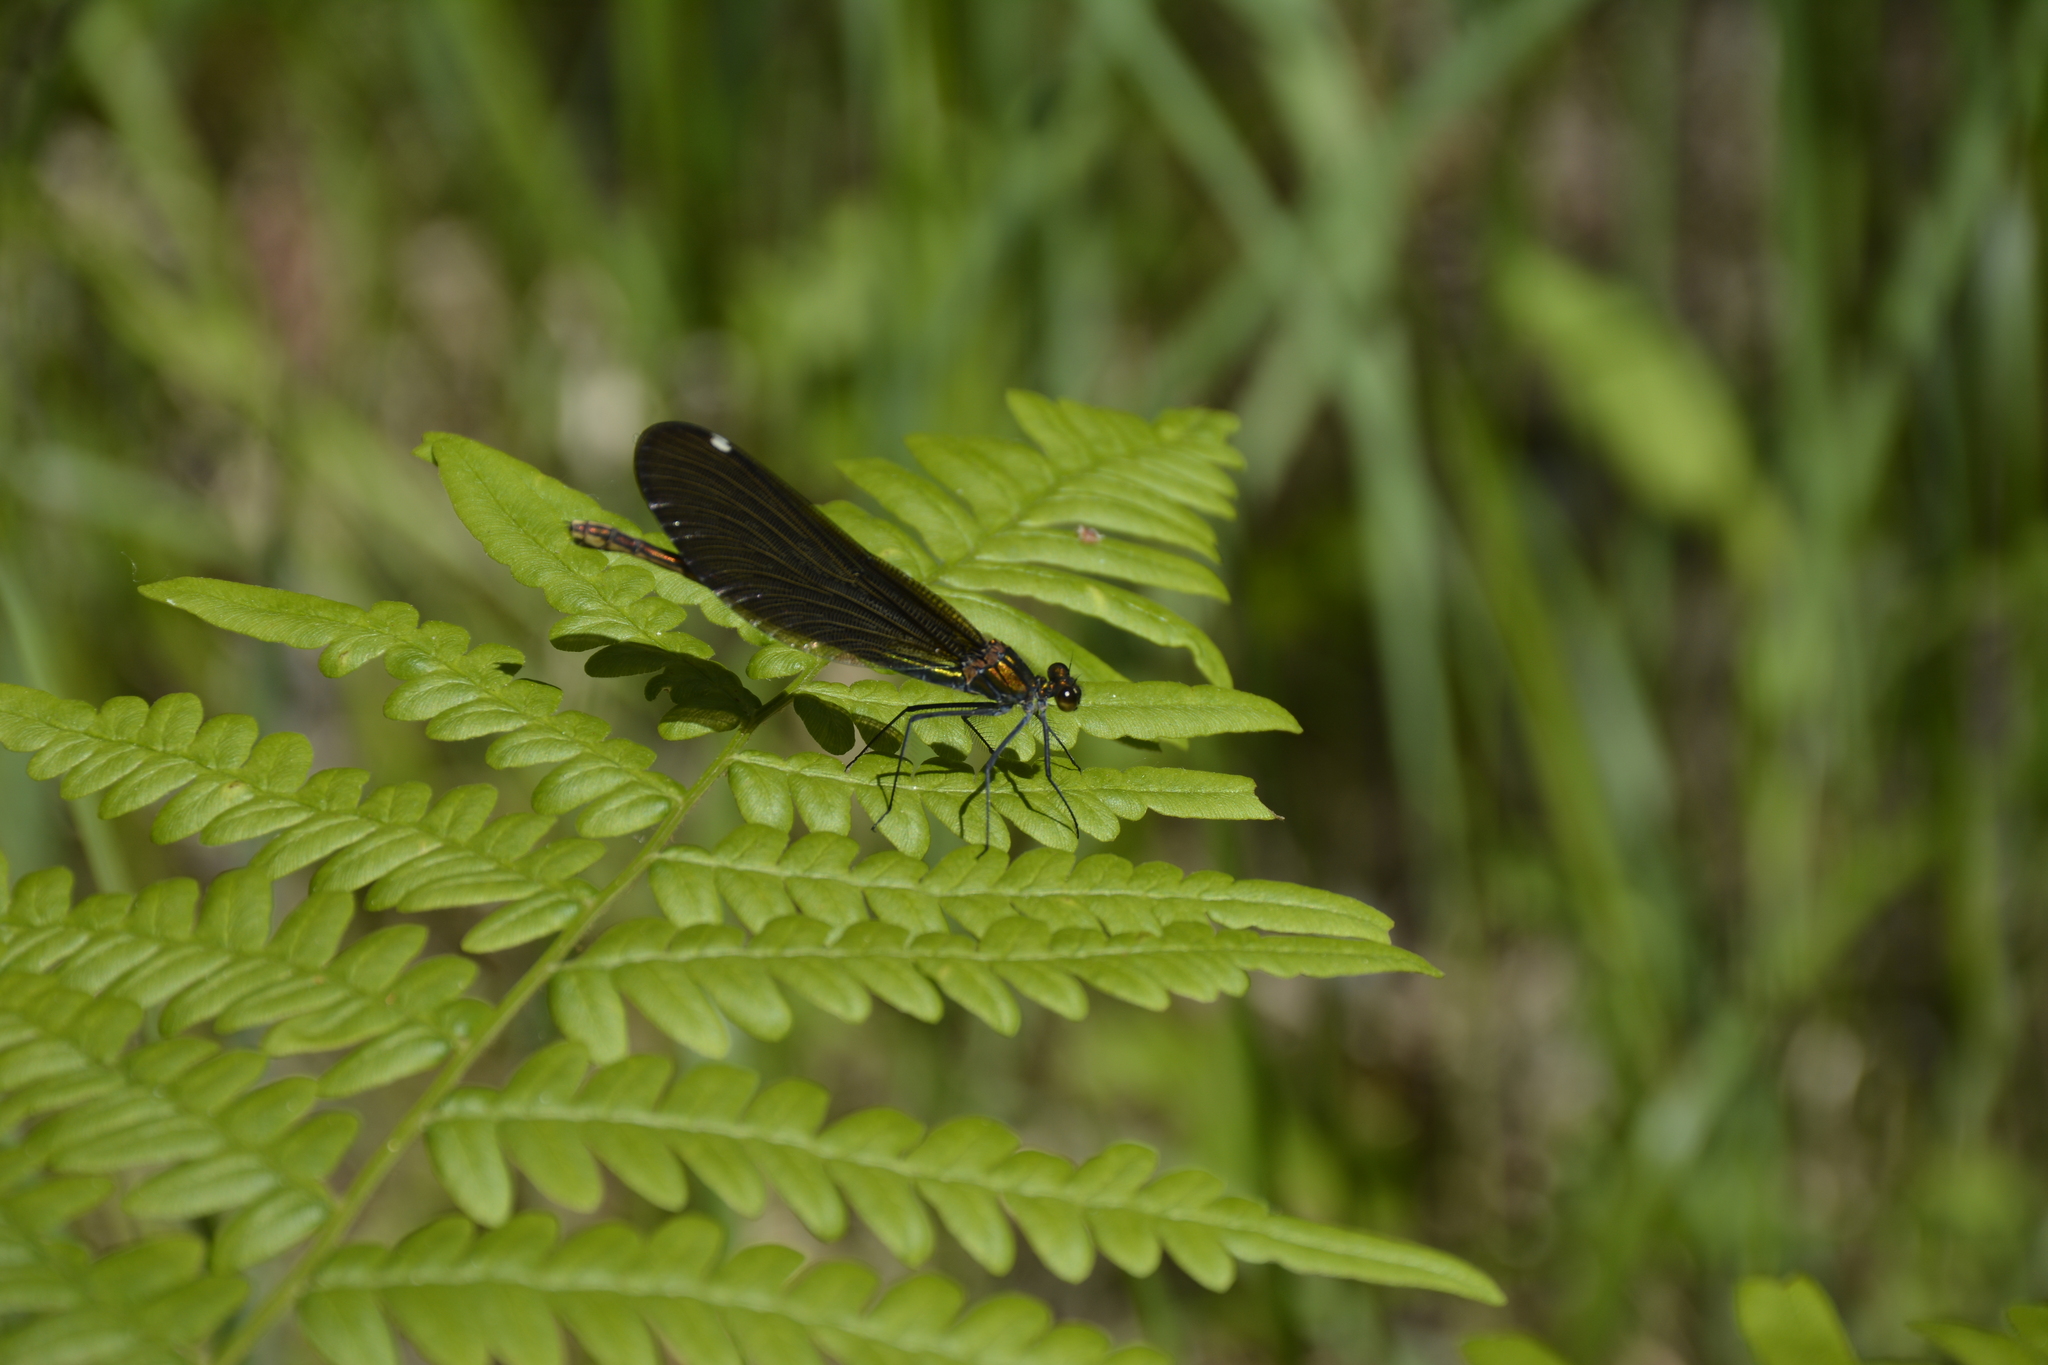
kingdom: Animalia
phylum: Arthropoda
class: Insecta
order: Odonata
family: Calopterygidae
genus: Calopteryx
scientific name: Calopteryx virgo
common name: Beautiful demoiselle
